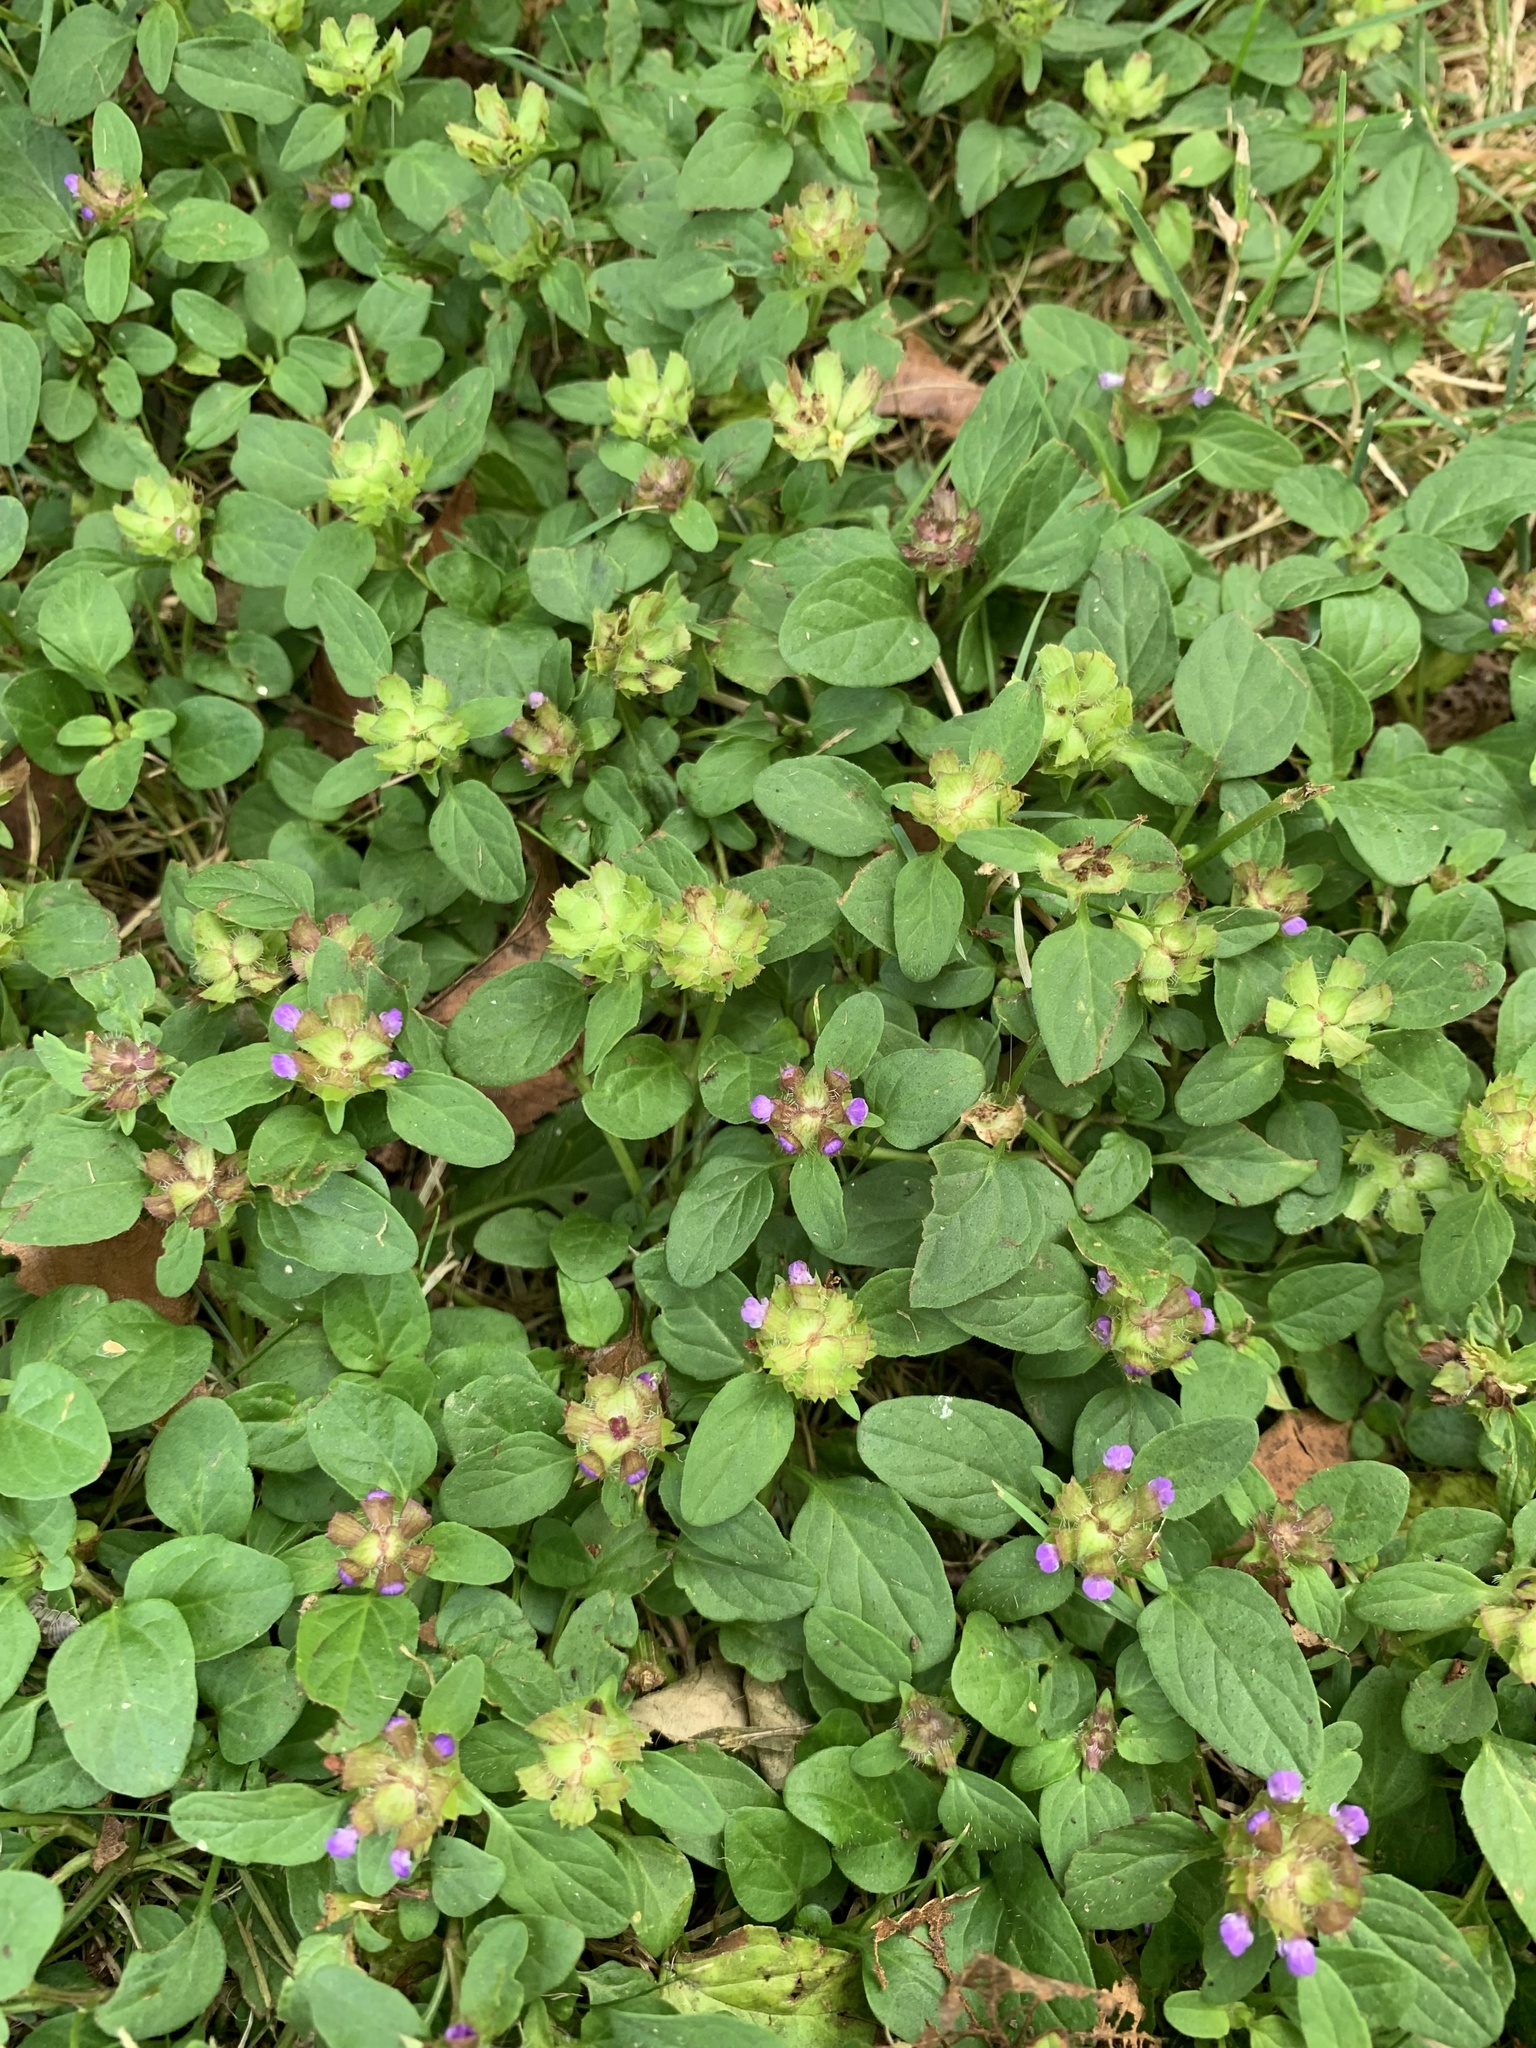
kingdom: Plantae
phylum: Tracheophyta
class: Magnoliopsida
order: Lamiales
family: Lamiaceae
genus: Prunella
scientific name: Prunella vulgaris
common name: Heal-all
